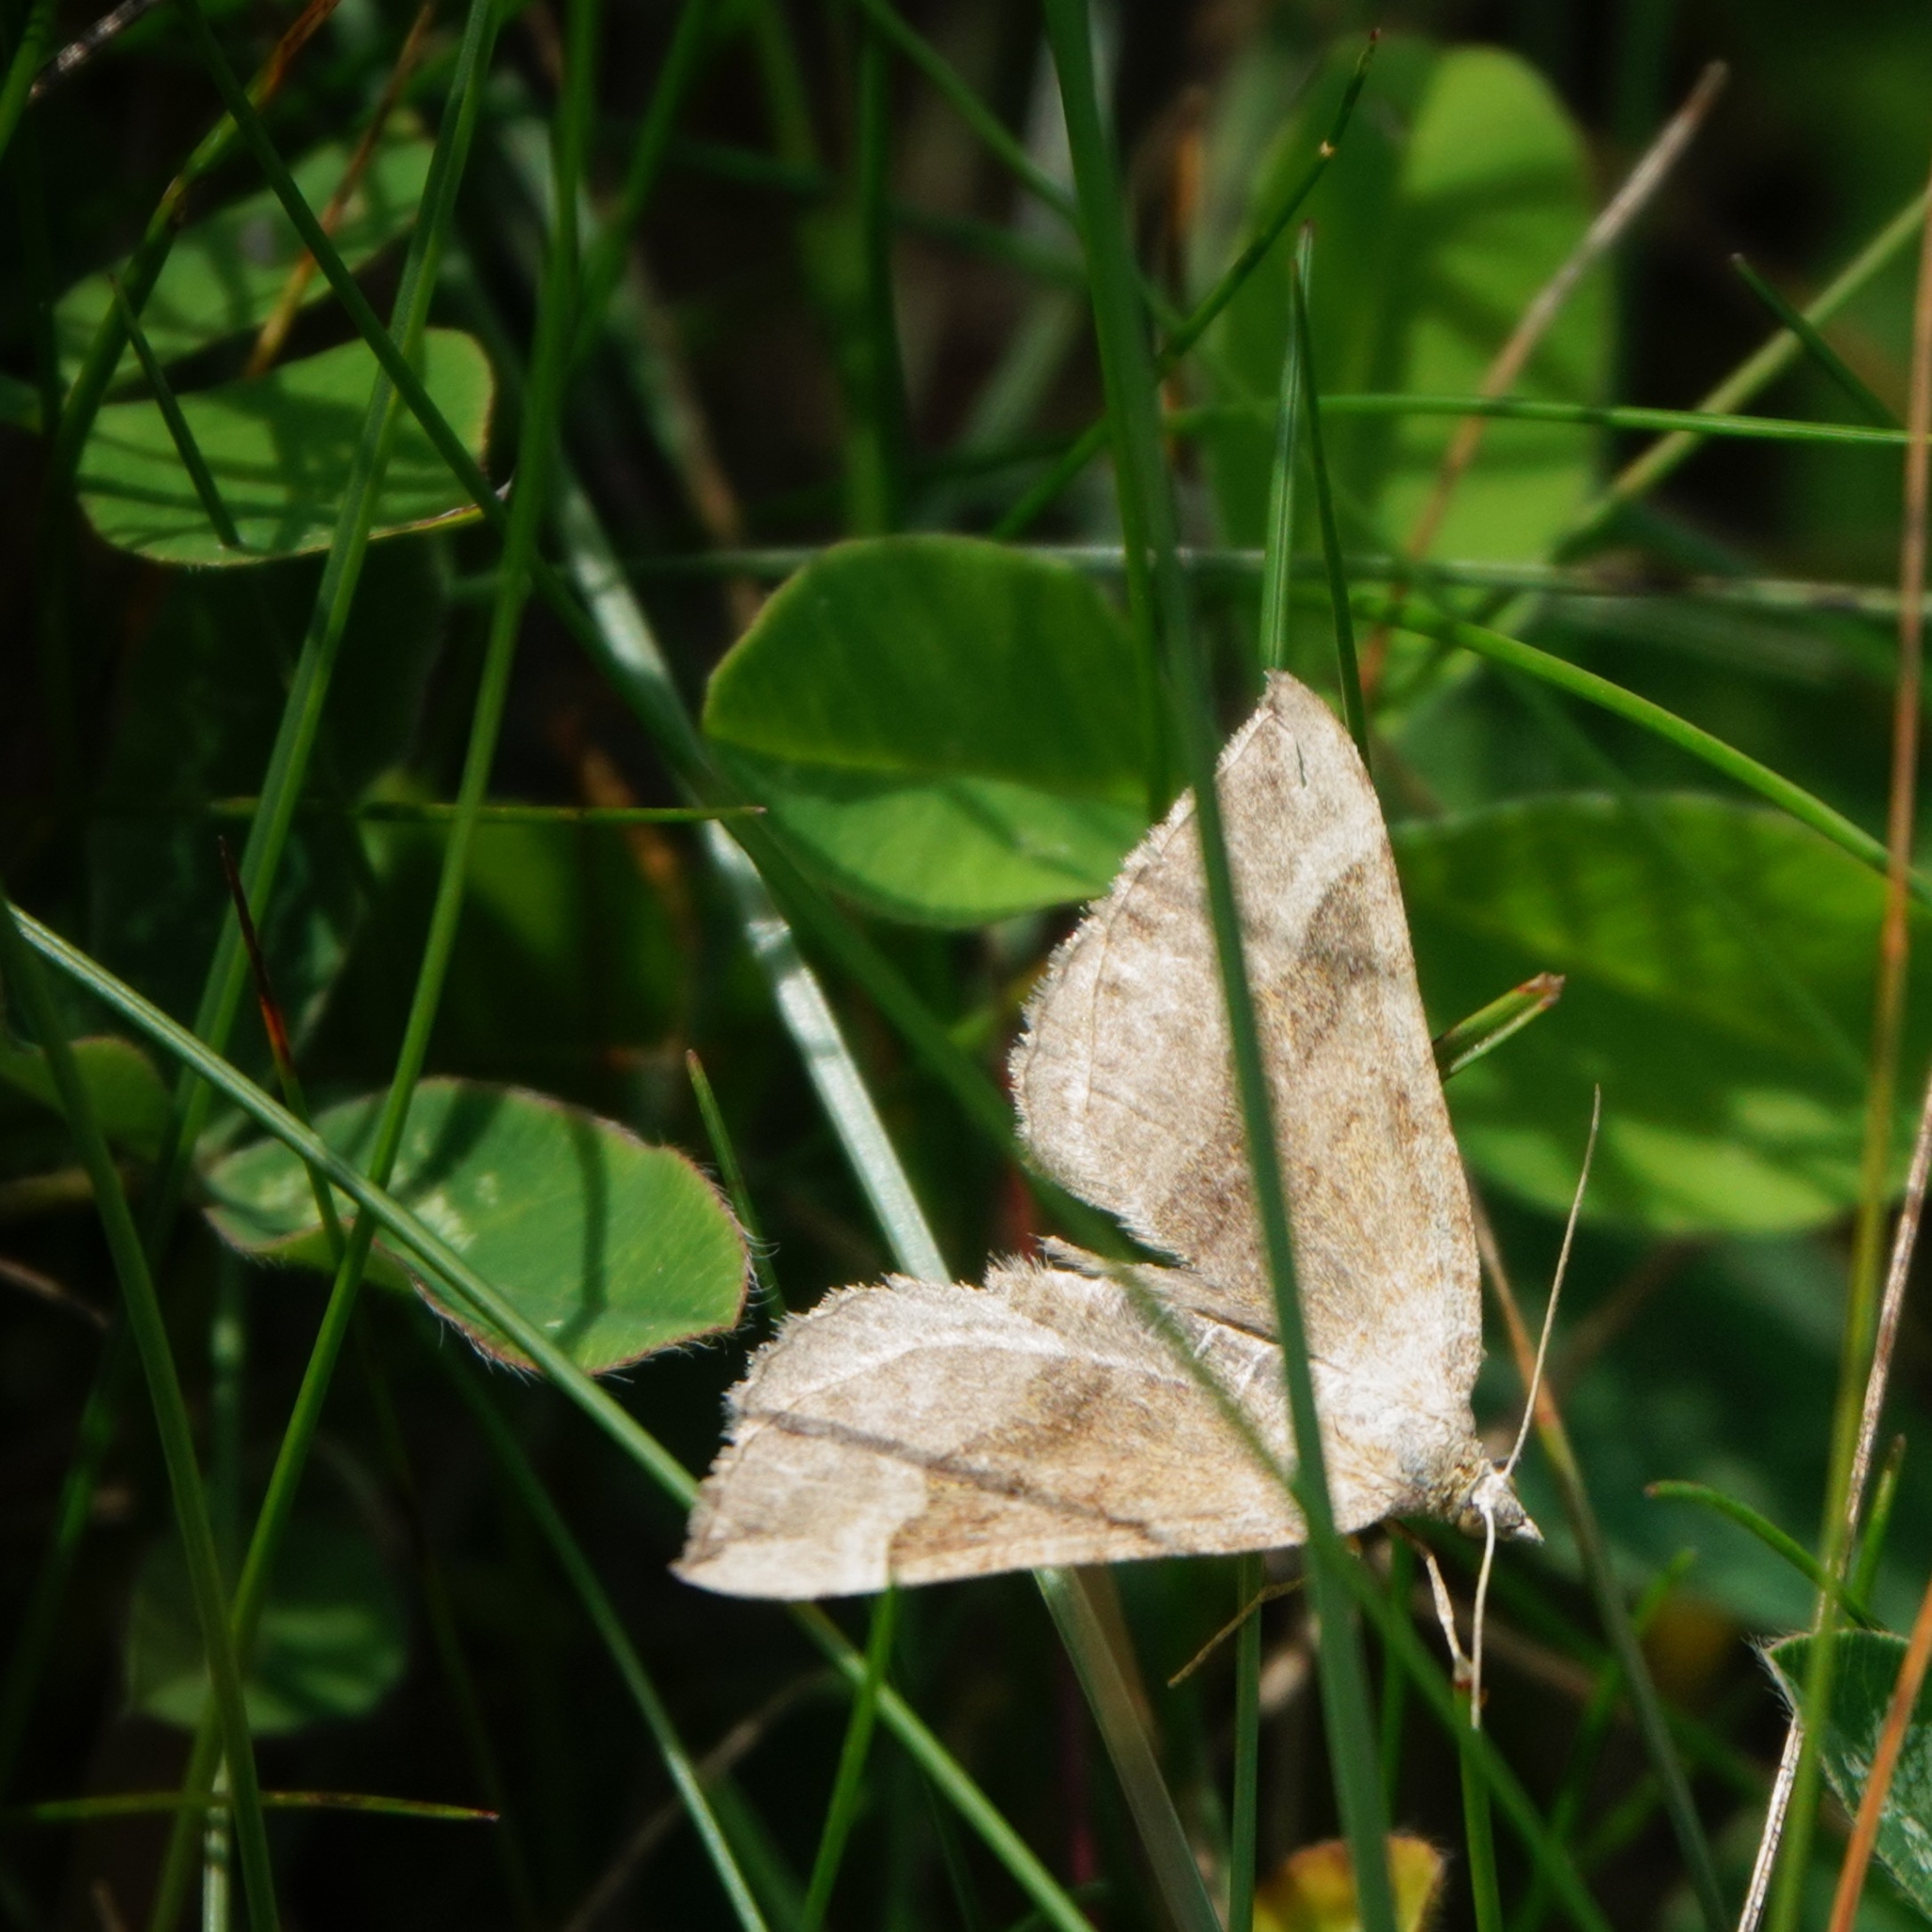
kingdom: Animalia
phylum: Arthropoda
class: Insecta
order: Lepidoptera
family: Geometridae
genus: Scotopteryx
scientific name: Scotopteryx chenopodiata
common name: Shaded broad-bar
